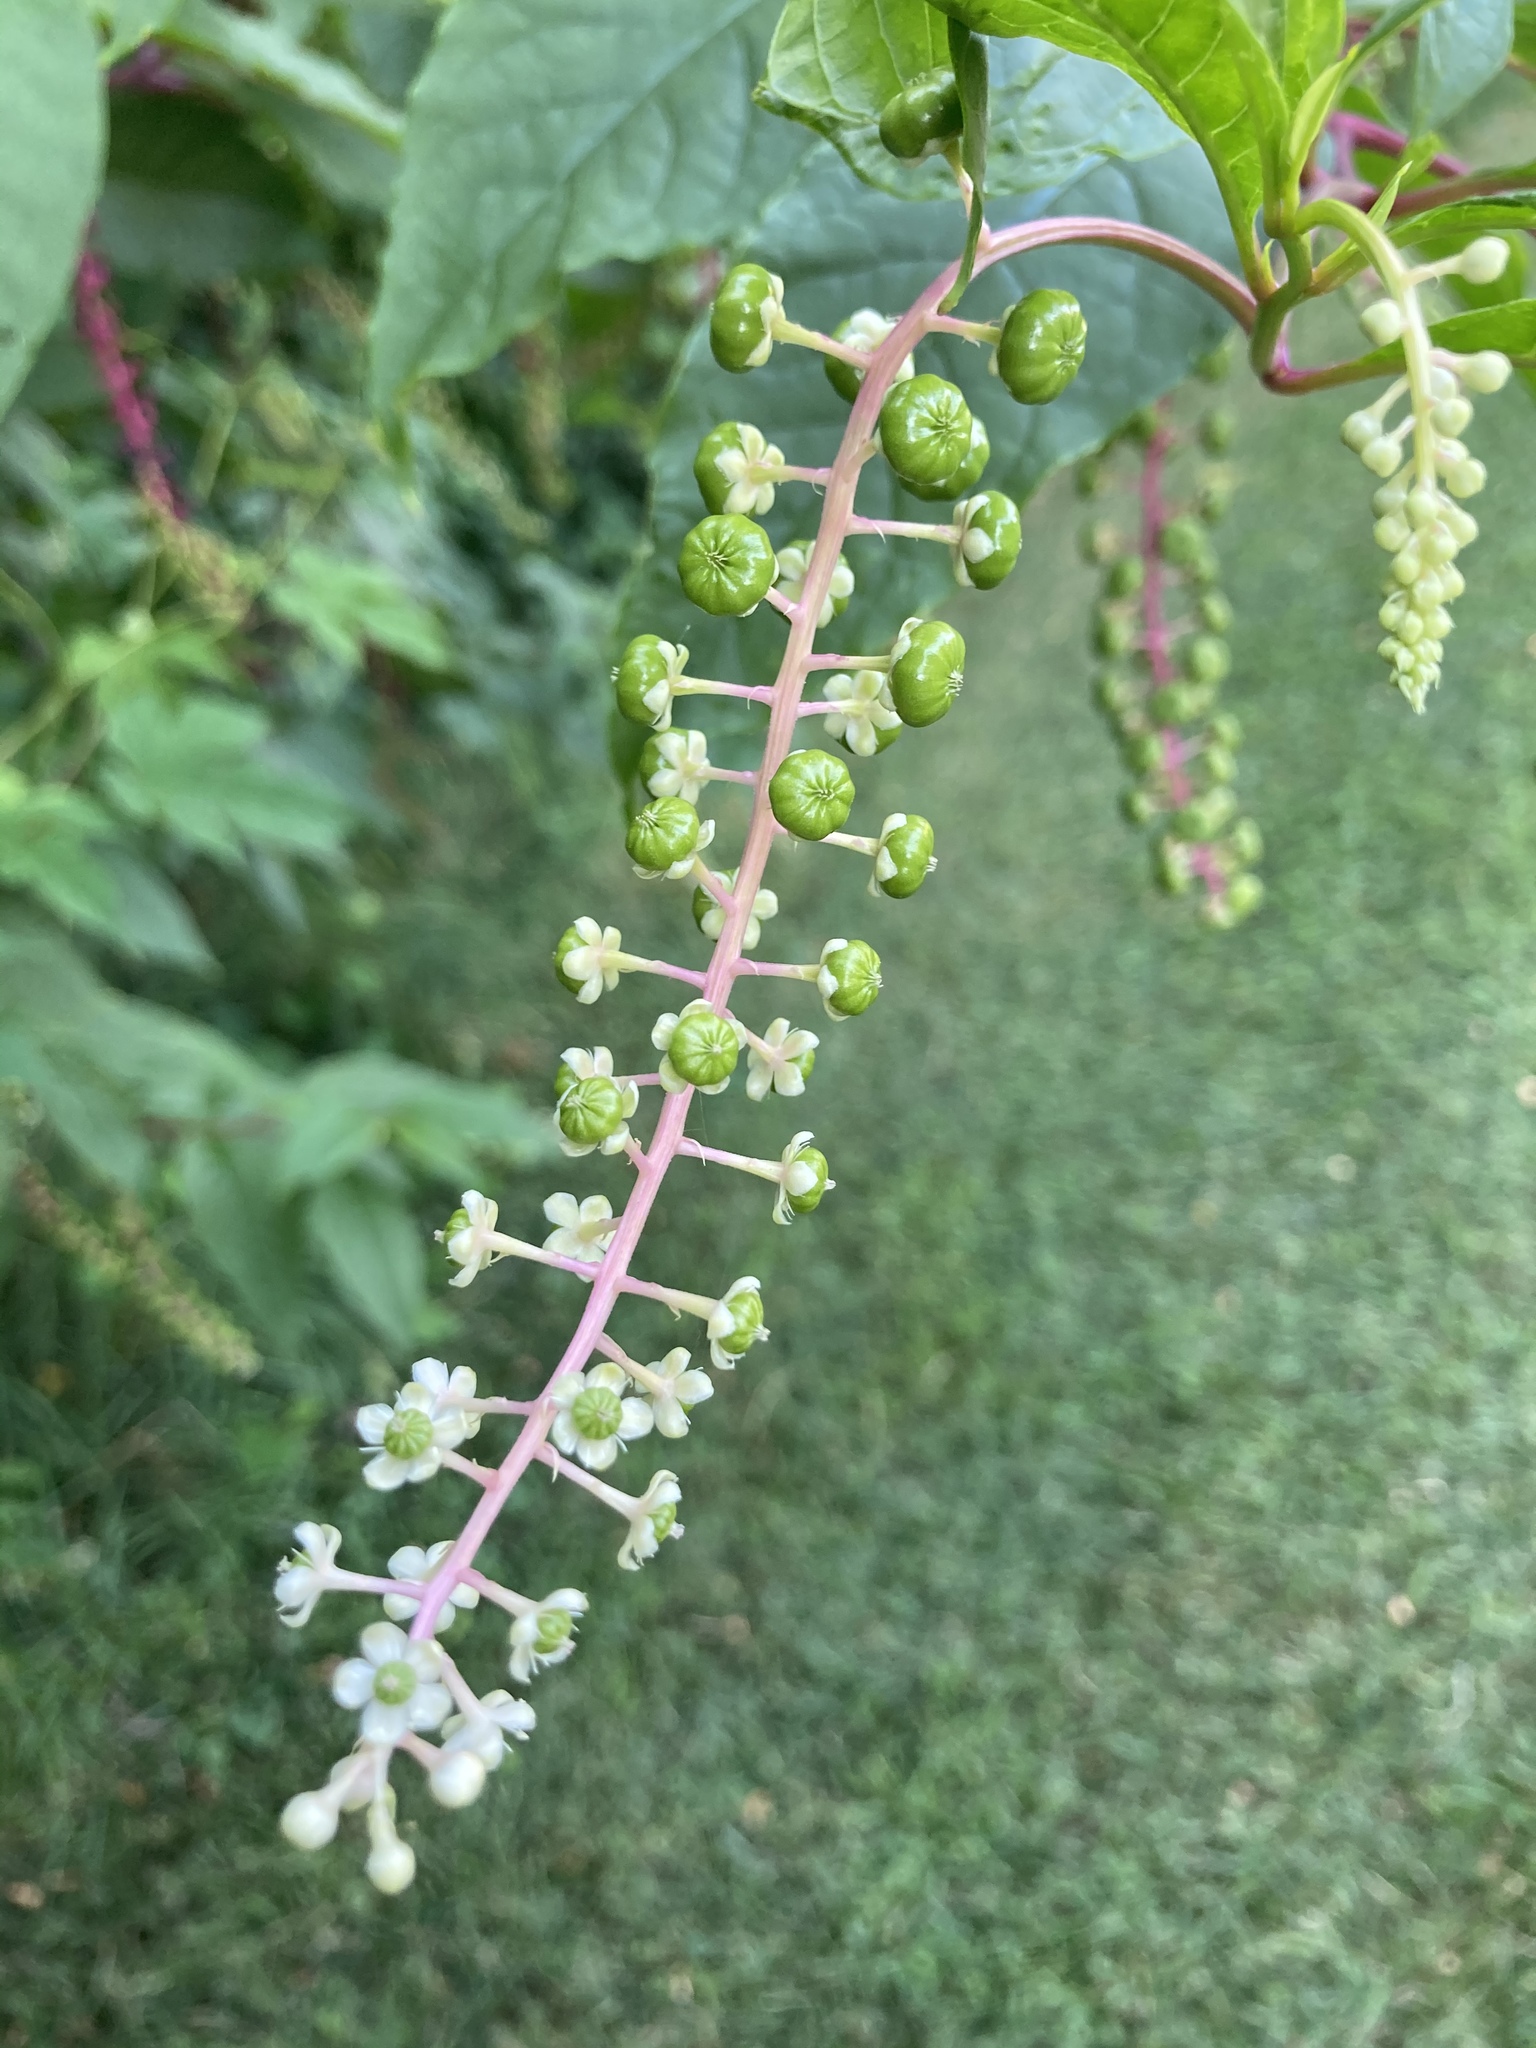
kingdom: Plantae
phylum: Tracheophyta
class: Magnoliopsida
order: Caryophyllales
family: Phytolaccaceae
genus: Phytolacca
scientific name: Phytolacca americana
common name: American pokeweed
